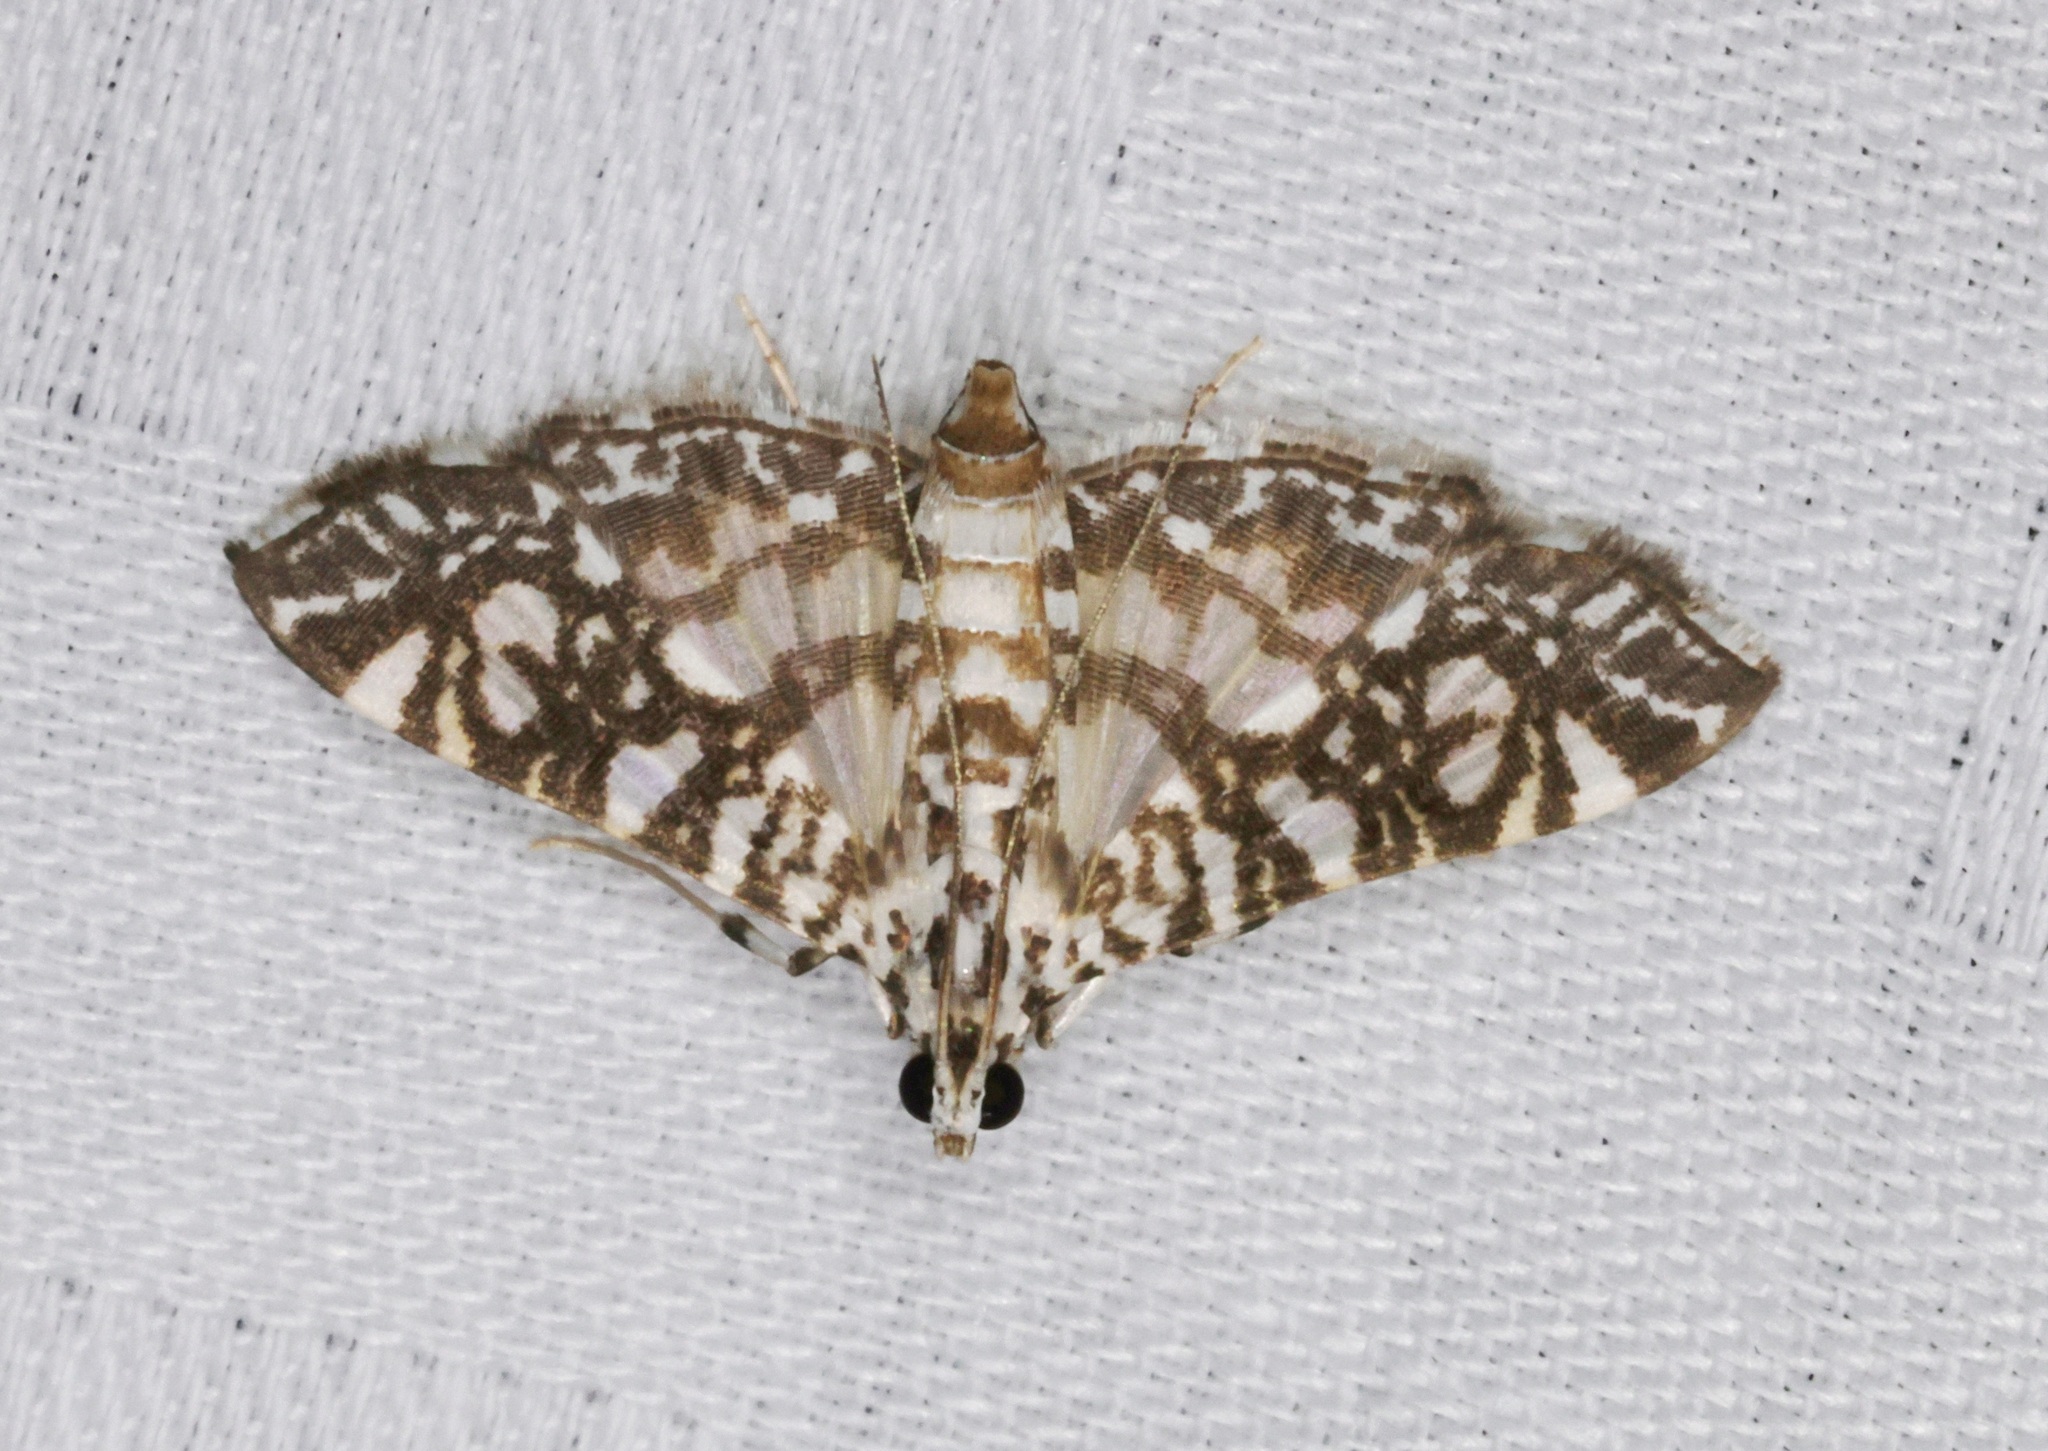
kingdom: Animalia
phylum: Arthropoda
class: Insecta
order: Lepidoptera
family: Crambidae
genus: Glyphodes
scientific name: Glyphodes onychinalis
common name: Swan plant moth
